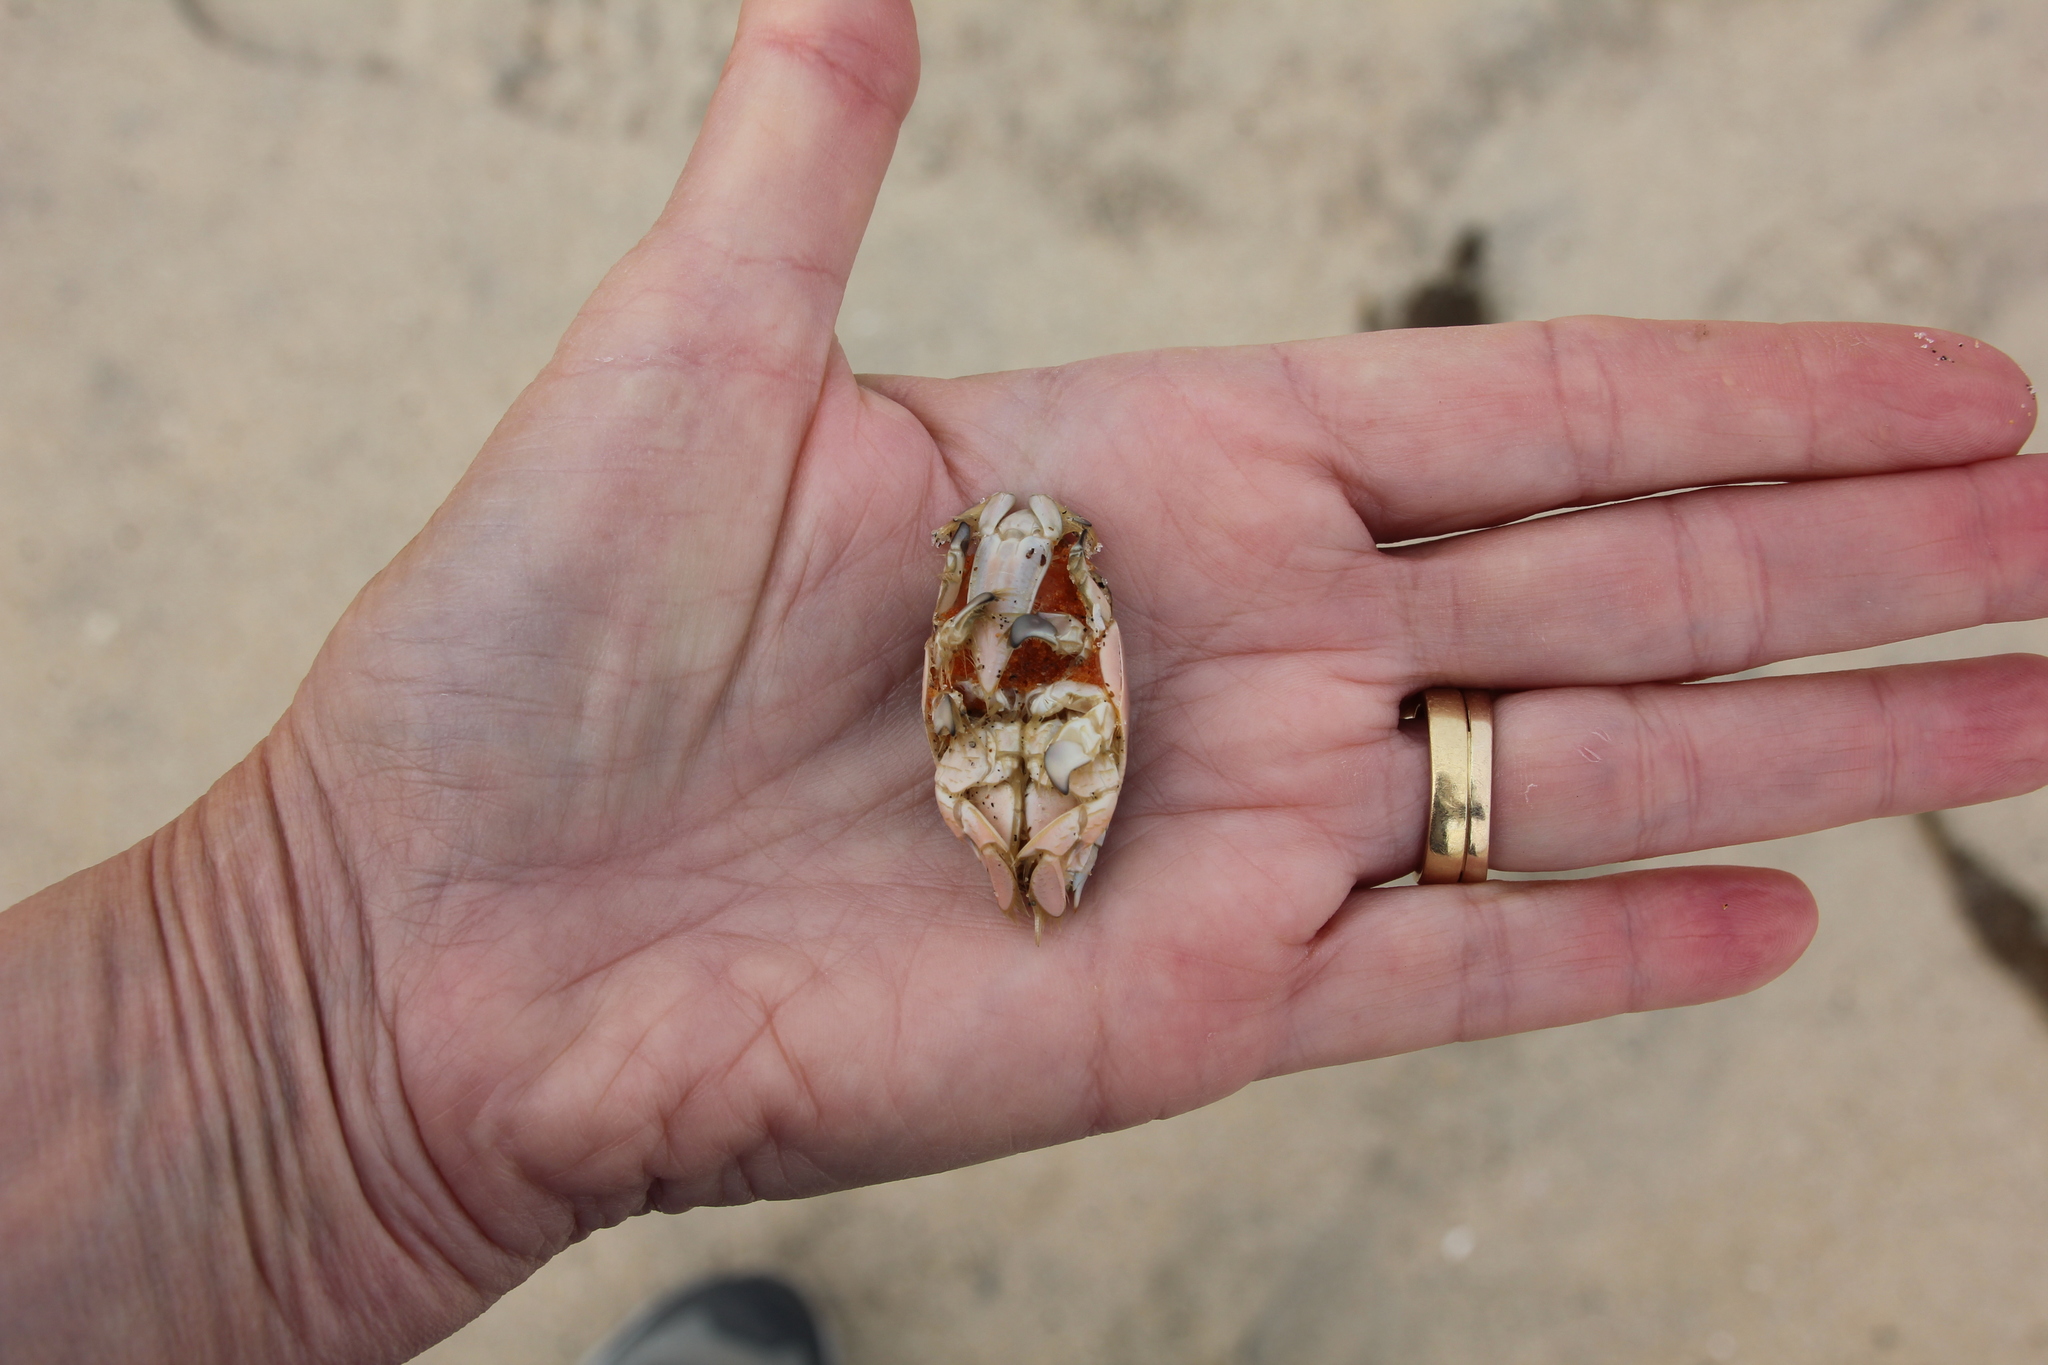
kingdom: Animalia
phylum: Arthropoda
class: Malacostraca
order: Decapoda
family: Hippidae
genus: Emerita
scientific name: Emerita analoga
